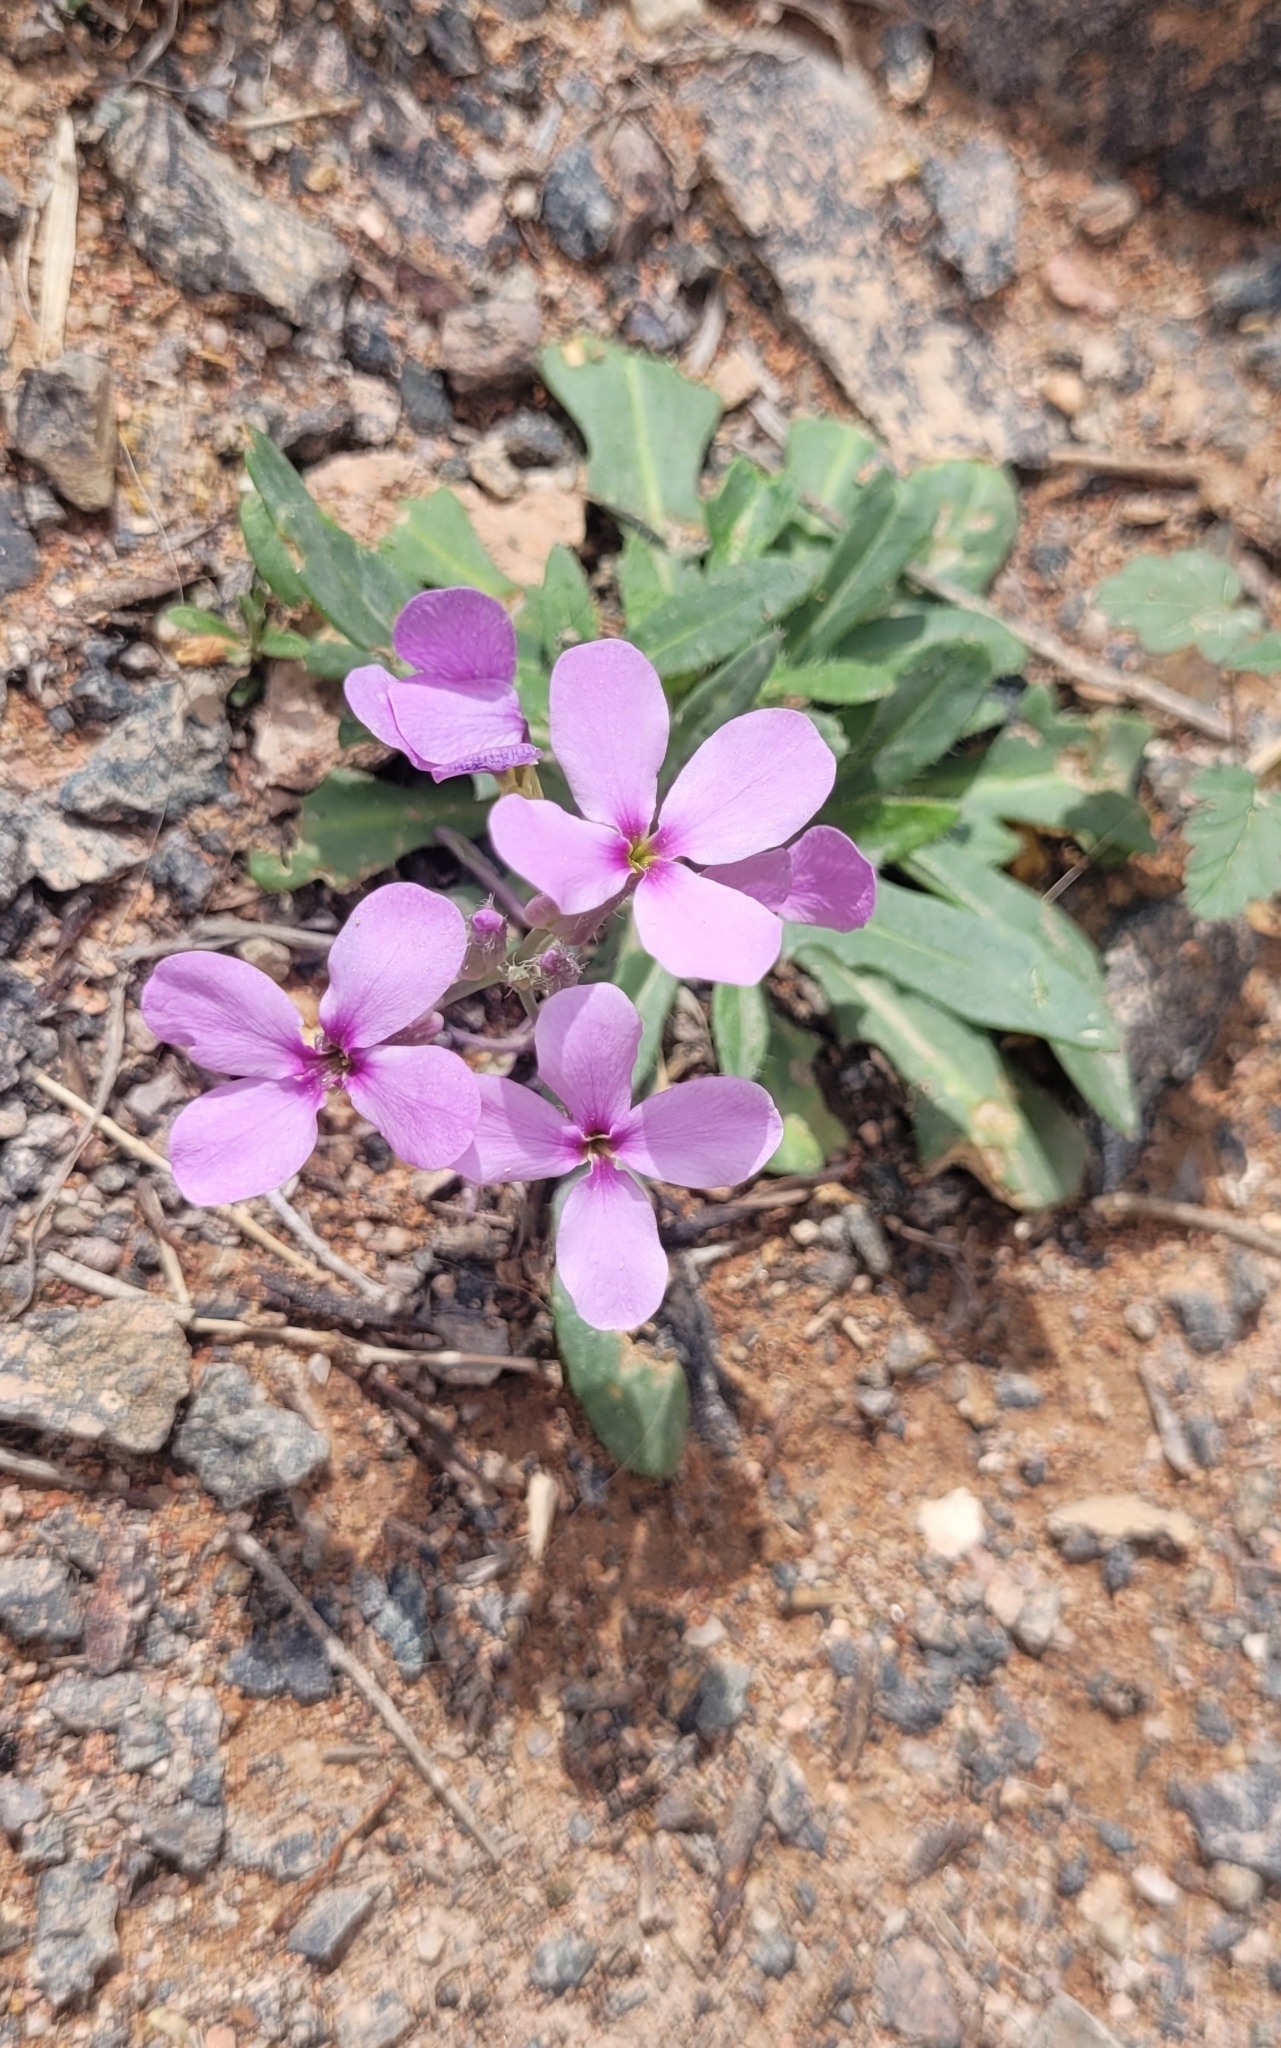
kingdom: Plantae
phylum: Tracheophyta
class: Magnoliopsida
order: Brassicales
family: Brassicaceae
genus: Leiospora
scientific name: Leiospora beketovii
